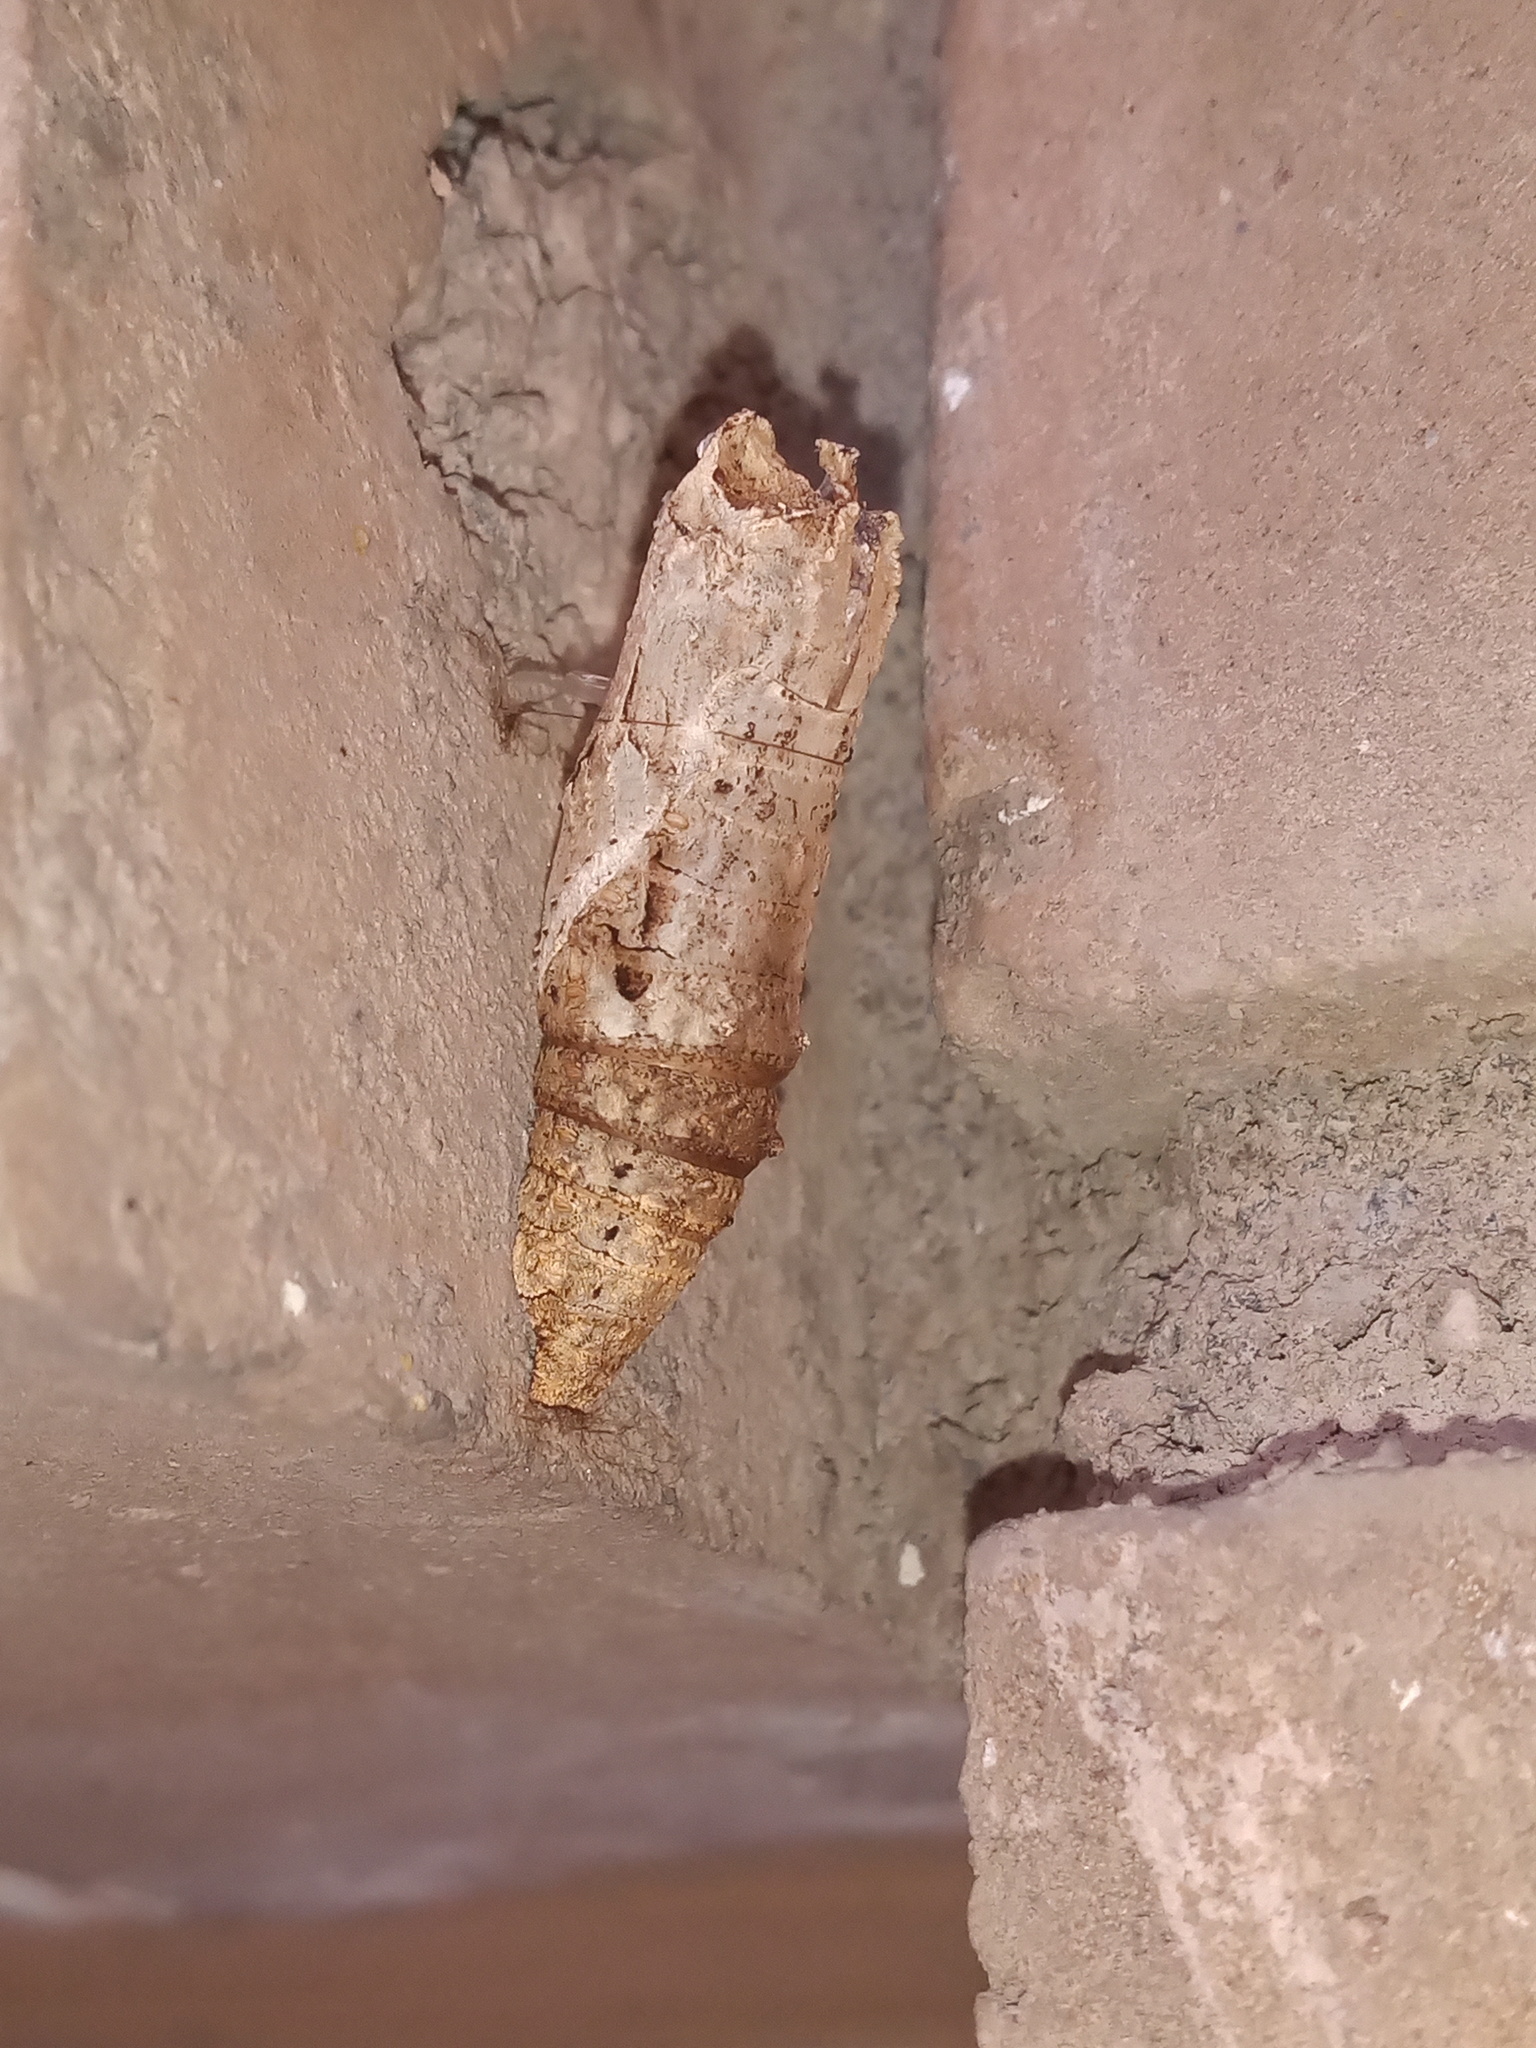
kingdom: Animalia
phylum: Arthropoda
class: Insecta
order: Lepidoptera
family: Papilionidae
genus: Papilio
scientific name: Papilio anchisiades
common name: Idaes swallowtail
